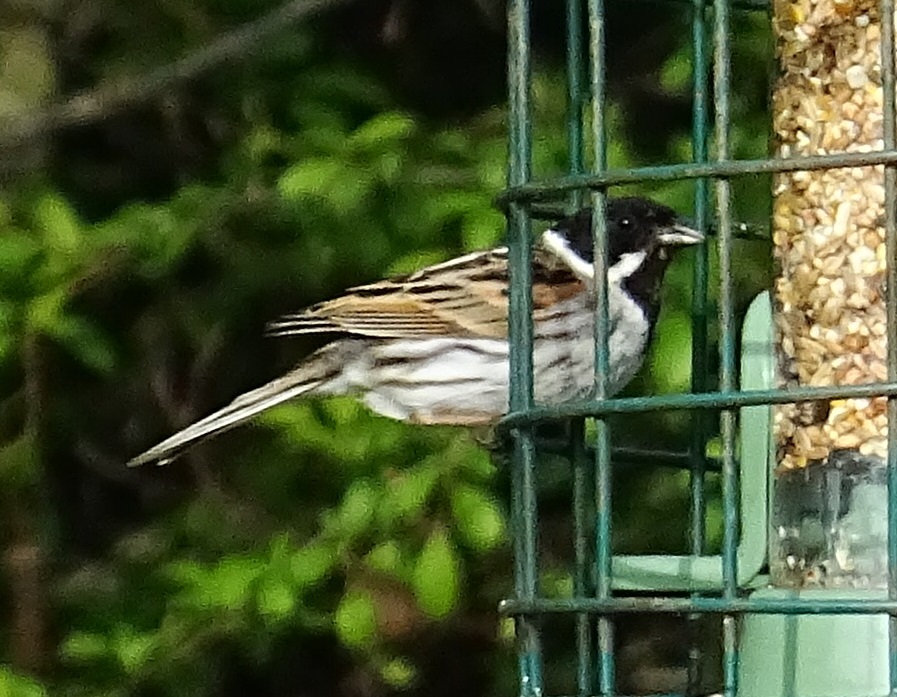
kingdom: Animalia
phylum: Chordata
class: Aves
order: Passeriformes
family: Emberizidae
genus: Emberiza
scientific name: Emberiza schoeniclus
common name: Reed bunting
